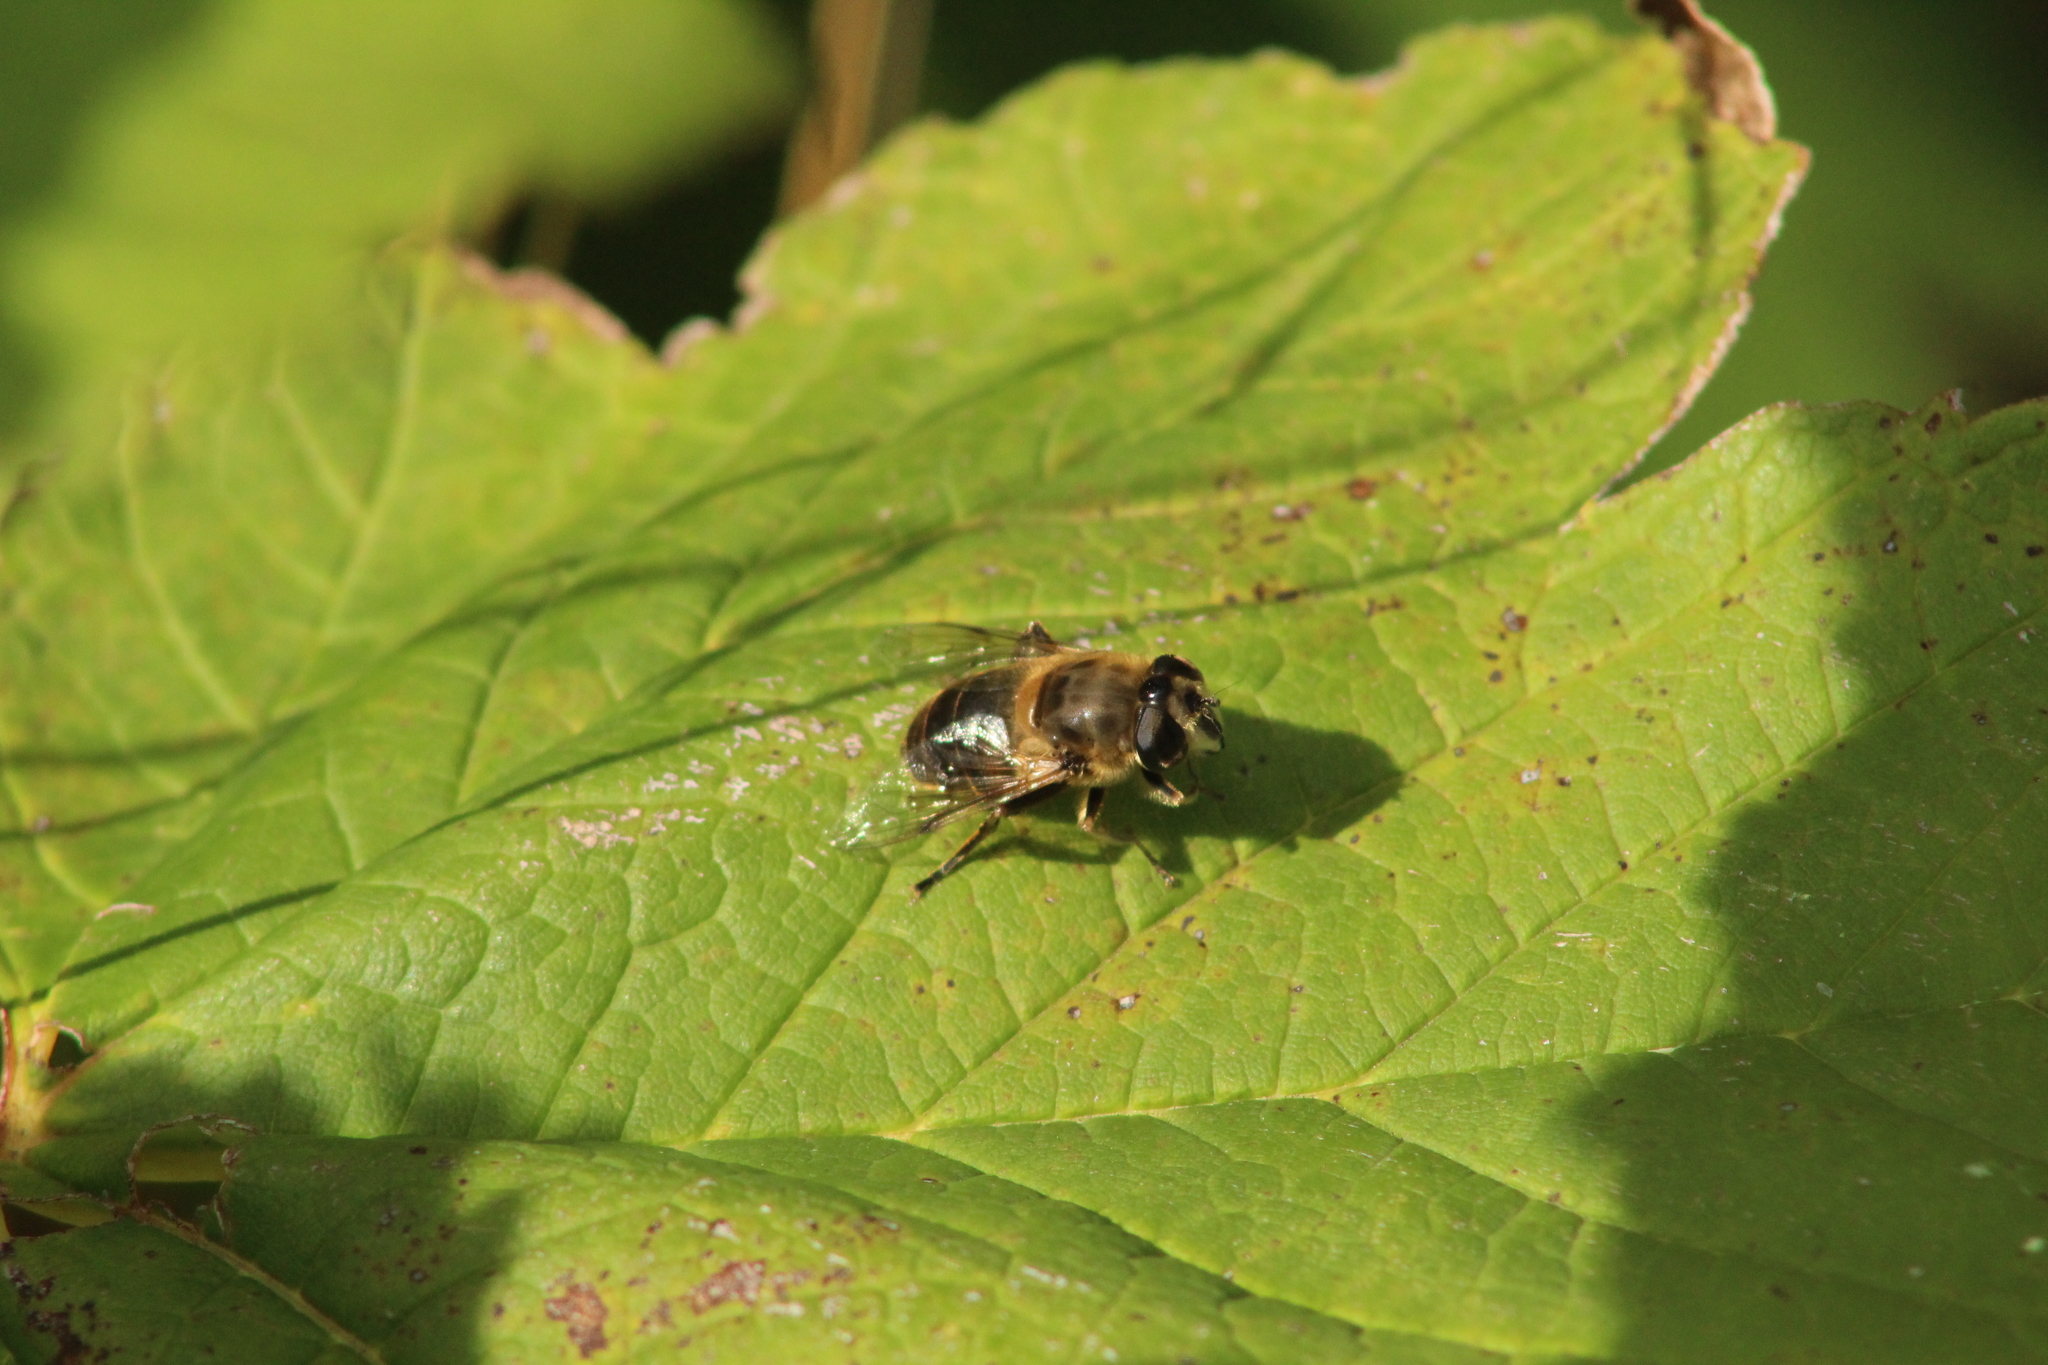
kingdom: Animalia
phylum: Arthropoda
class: Insecta
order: Diptera
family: Syrphidae
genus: Eristalis
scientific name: Eristalis tenax
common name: Drone fly
